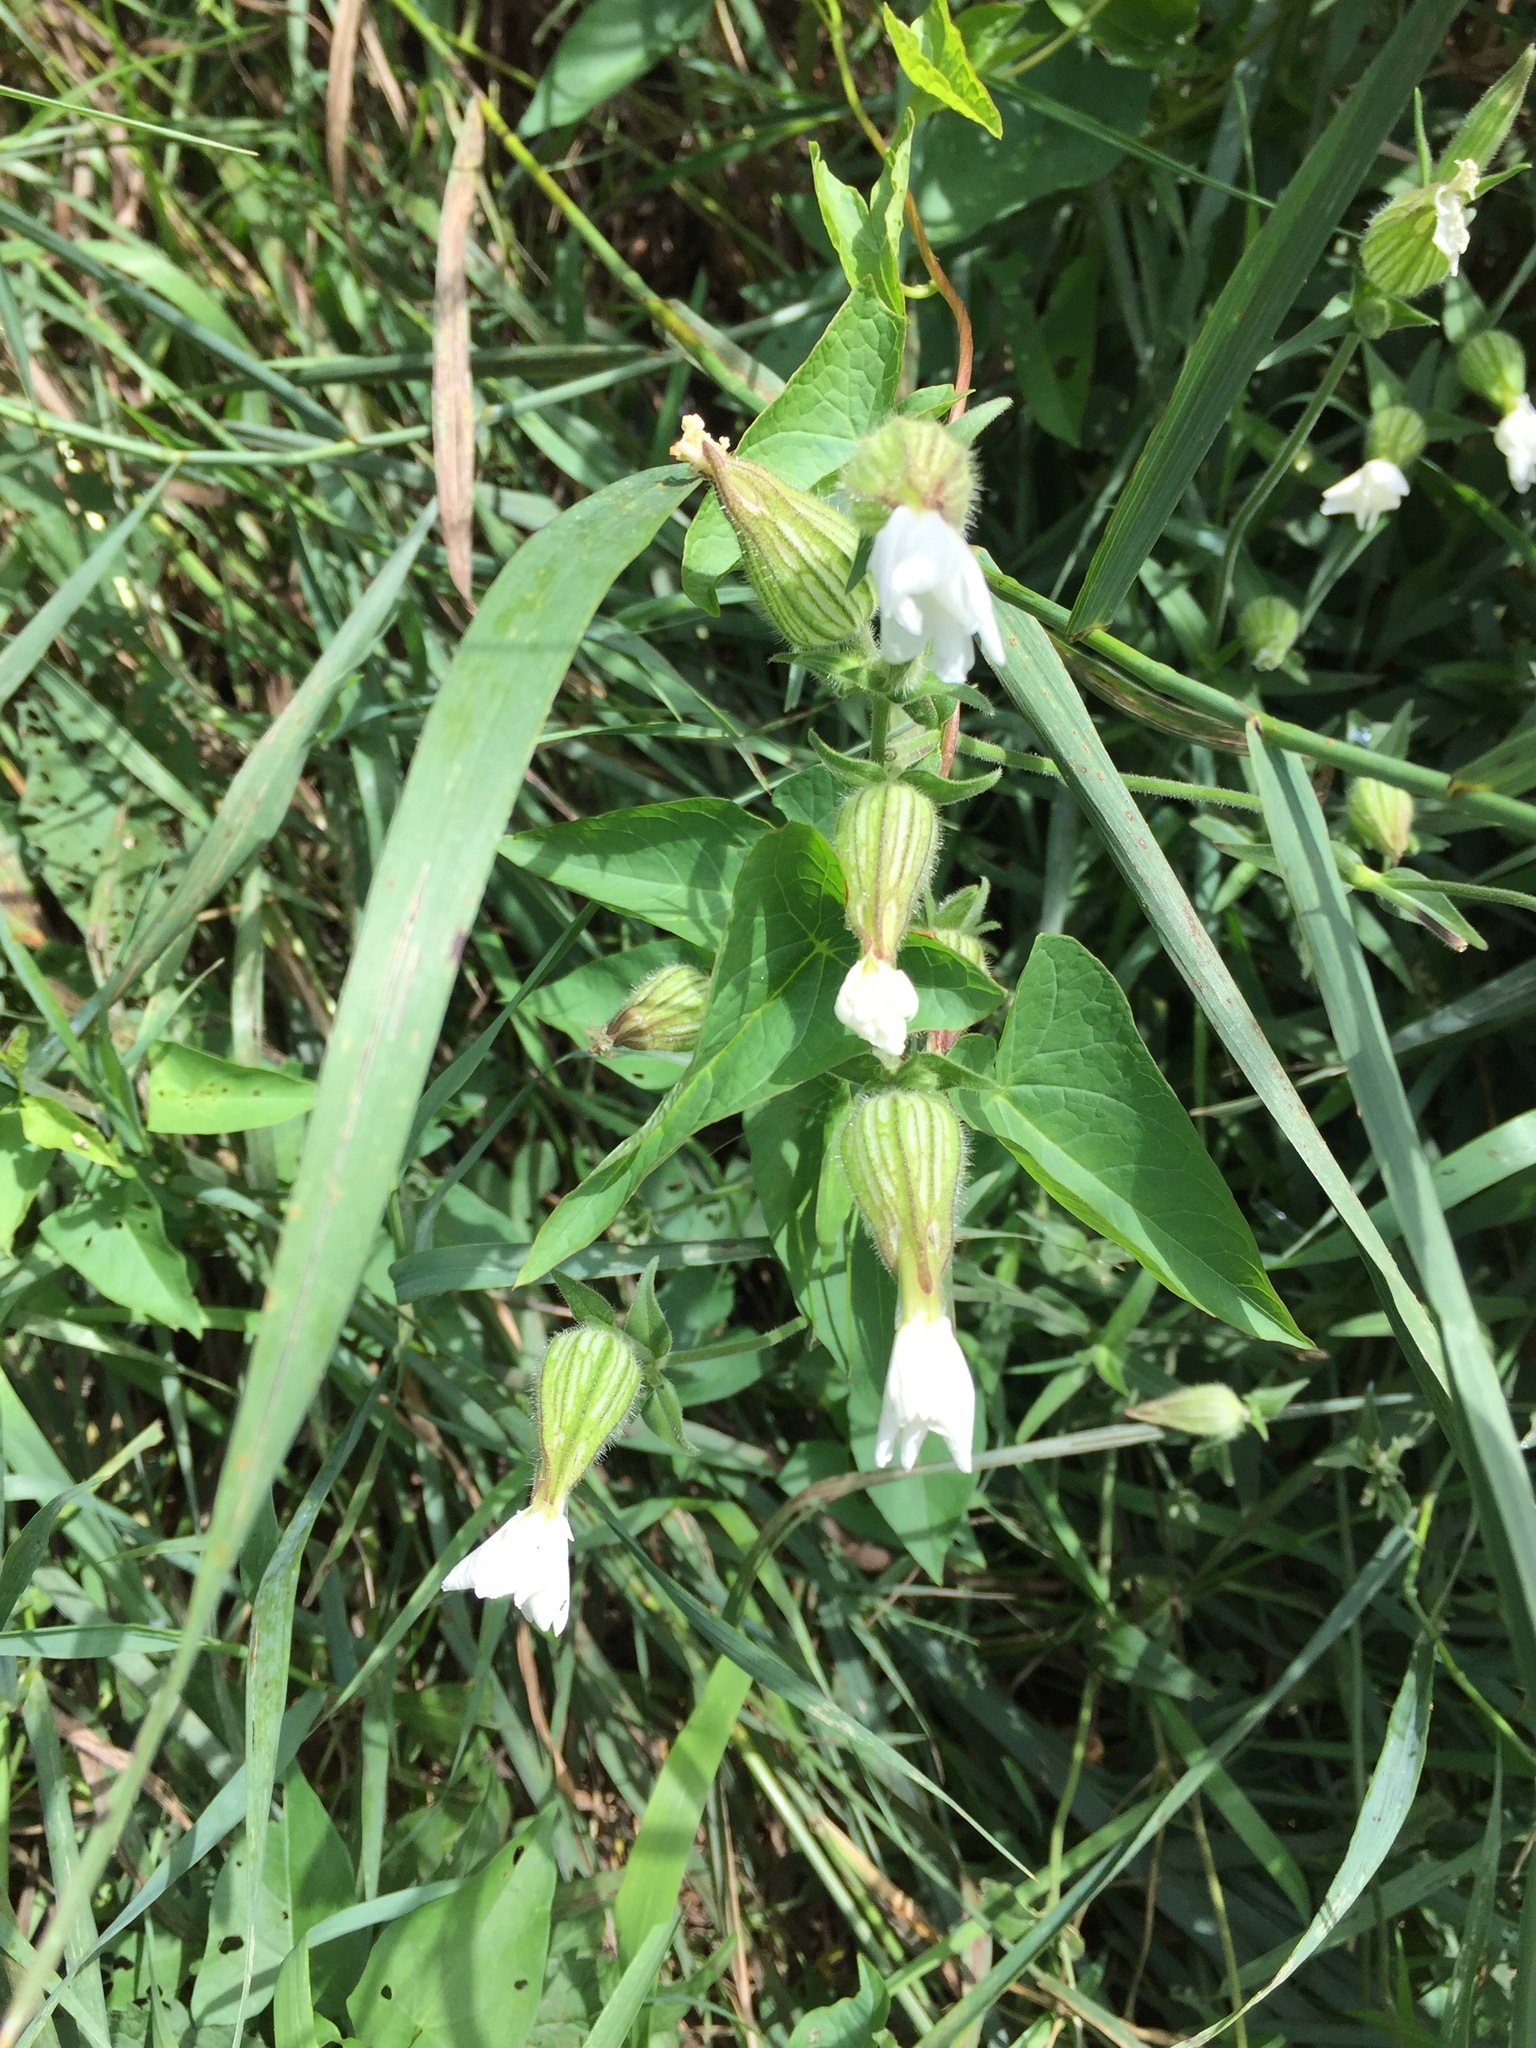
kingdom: Plantae
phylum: Tracheophyta
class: Magnoliopsida
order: Caryophyllales
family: Caryophyllaceae
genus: Silene
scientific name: Silene latifolia
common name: White campion
